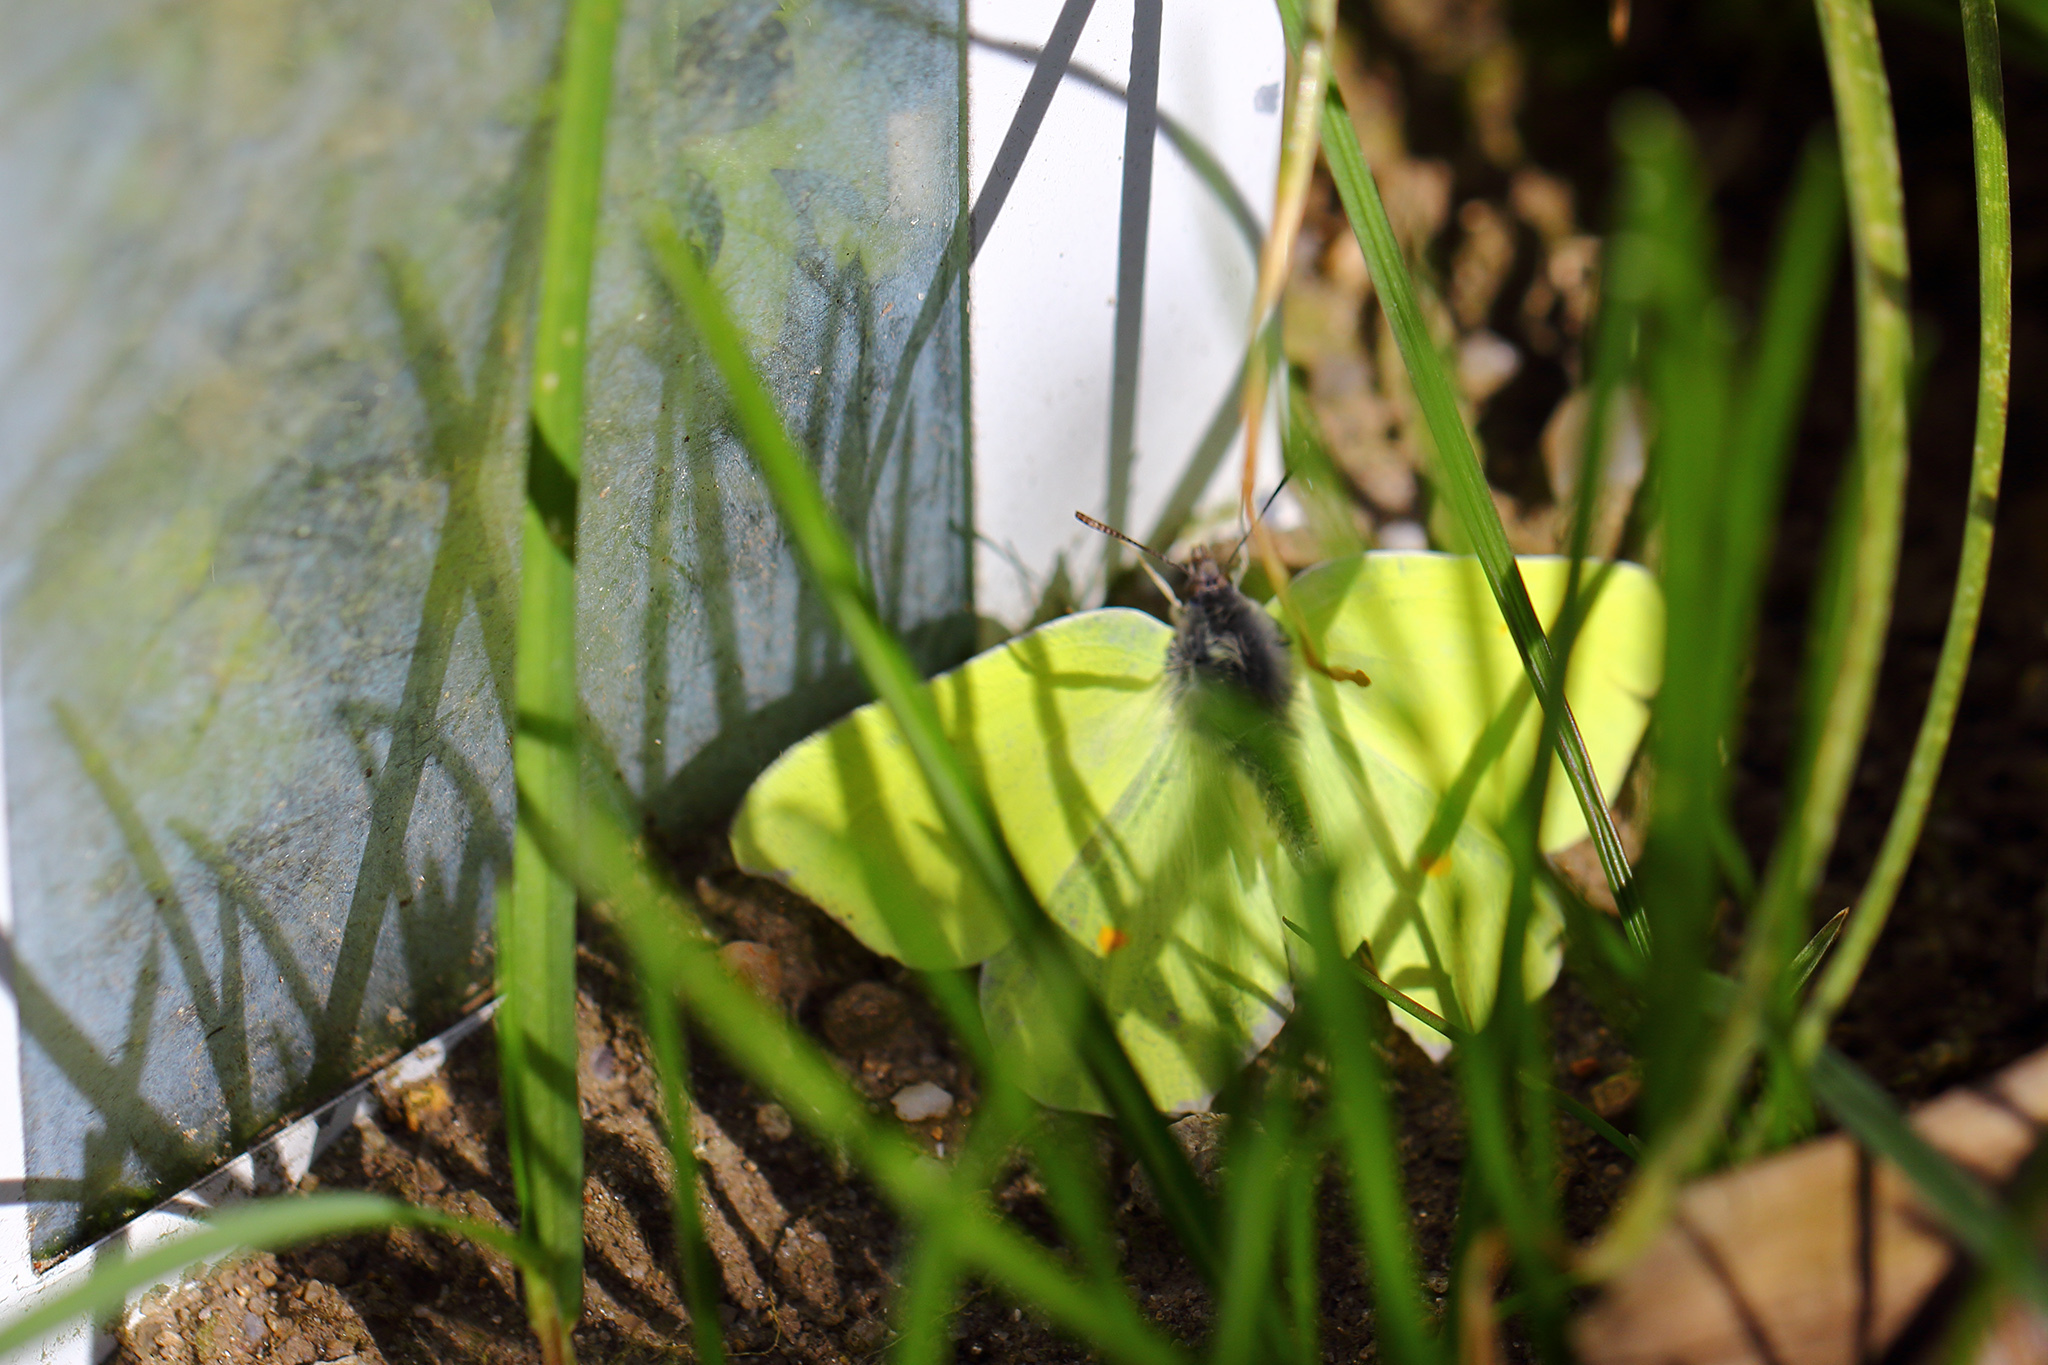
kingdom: Animalia
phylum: Arthropoda
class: Insecta
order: Lepidoptera
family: Pieridae
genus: Gonepteryx
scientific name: Gonepteryx rhamni
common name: Brimstone
